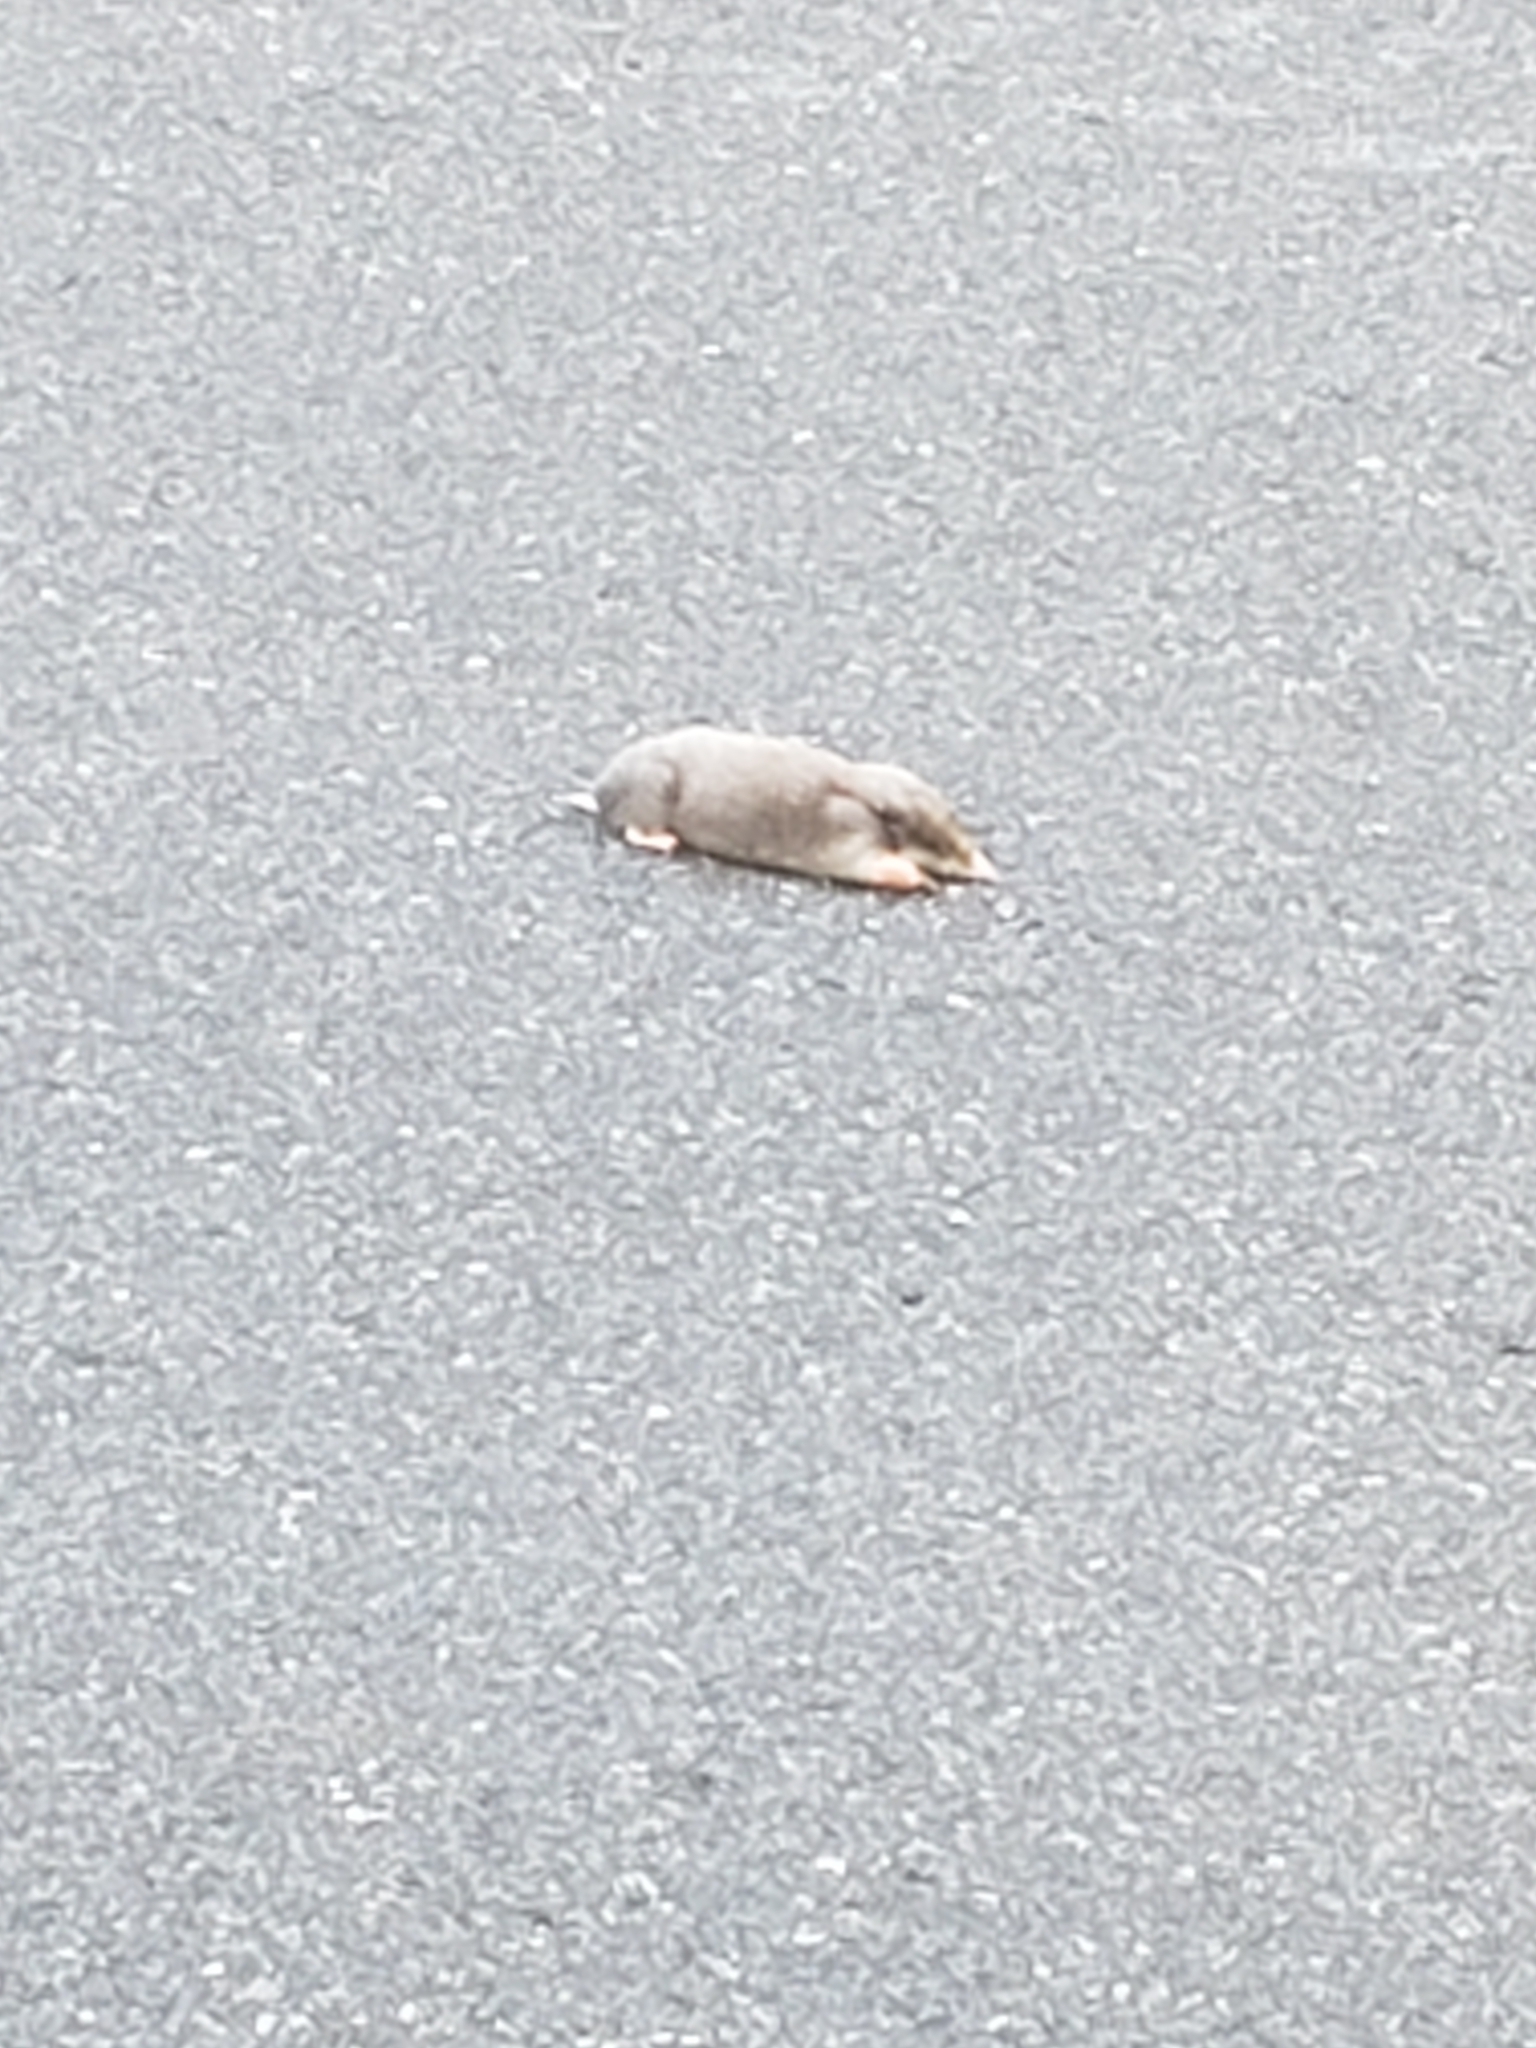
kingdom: Animalia
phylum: Chordata
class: Mammalia
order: Soricomorpha
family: Talpidae
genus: Scalopus
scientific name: Scalopus aquaticus
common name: Eastern mole
